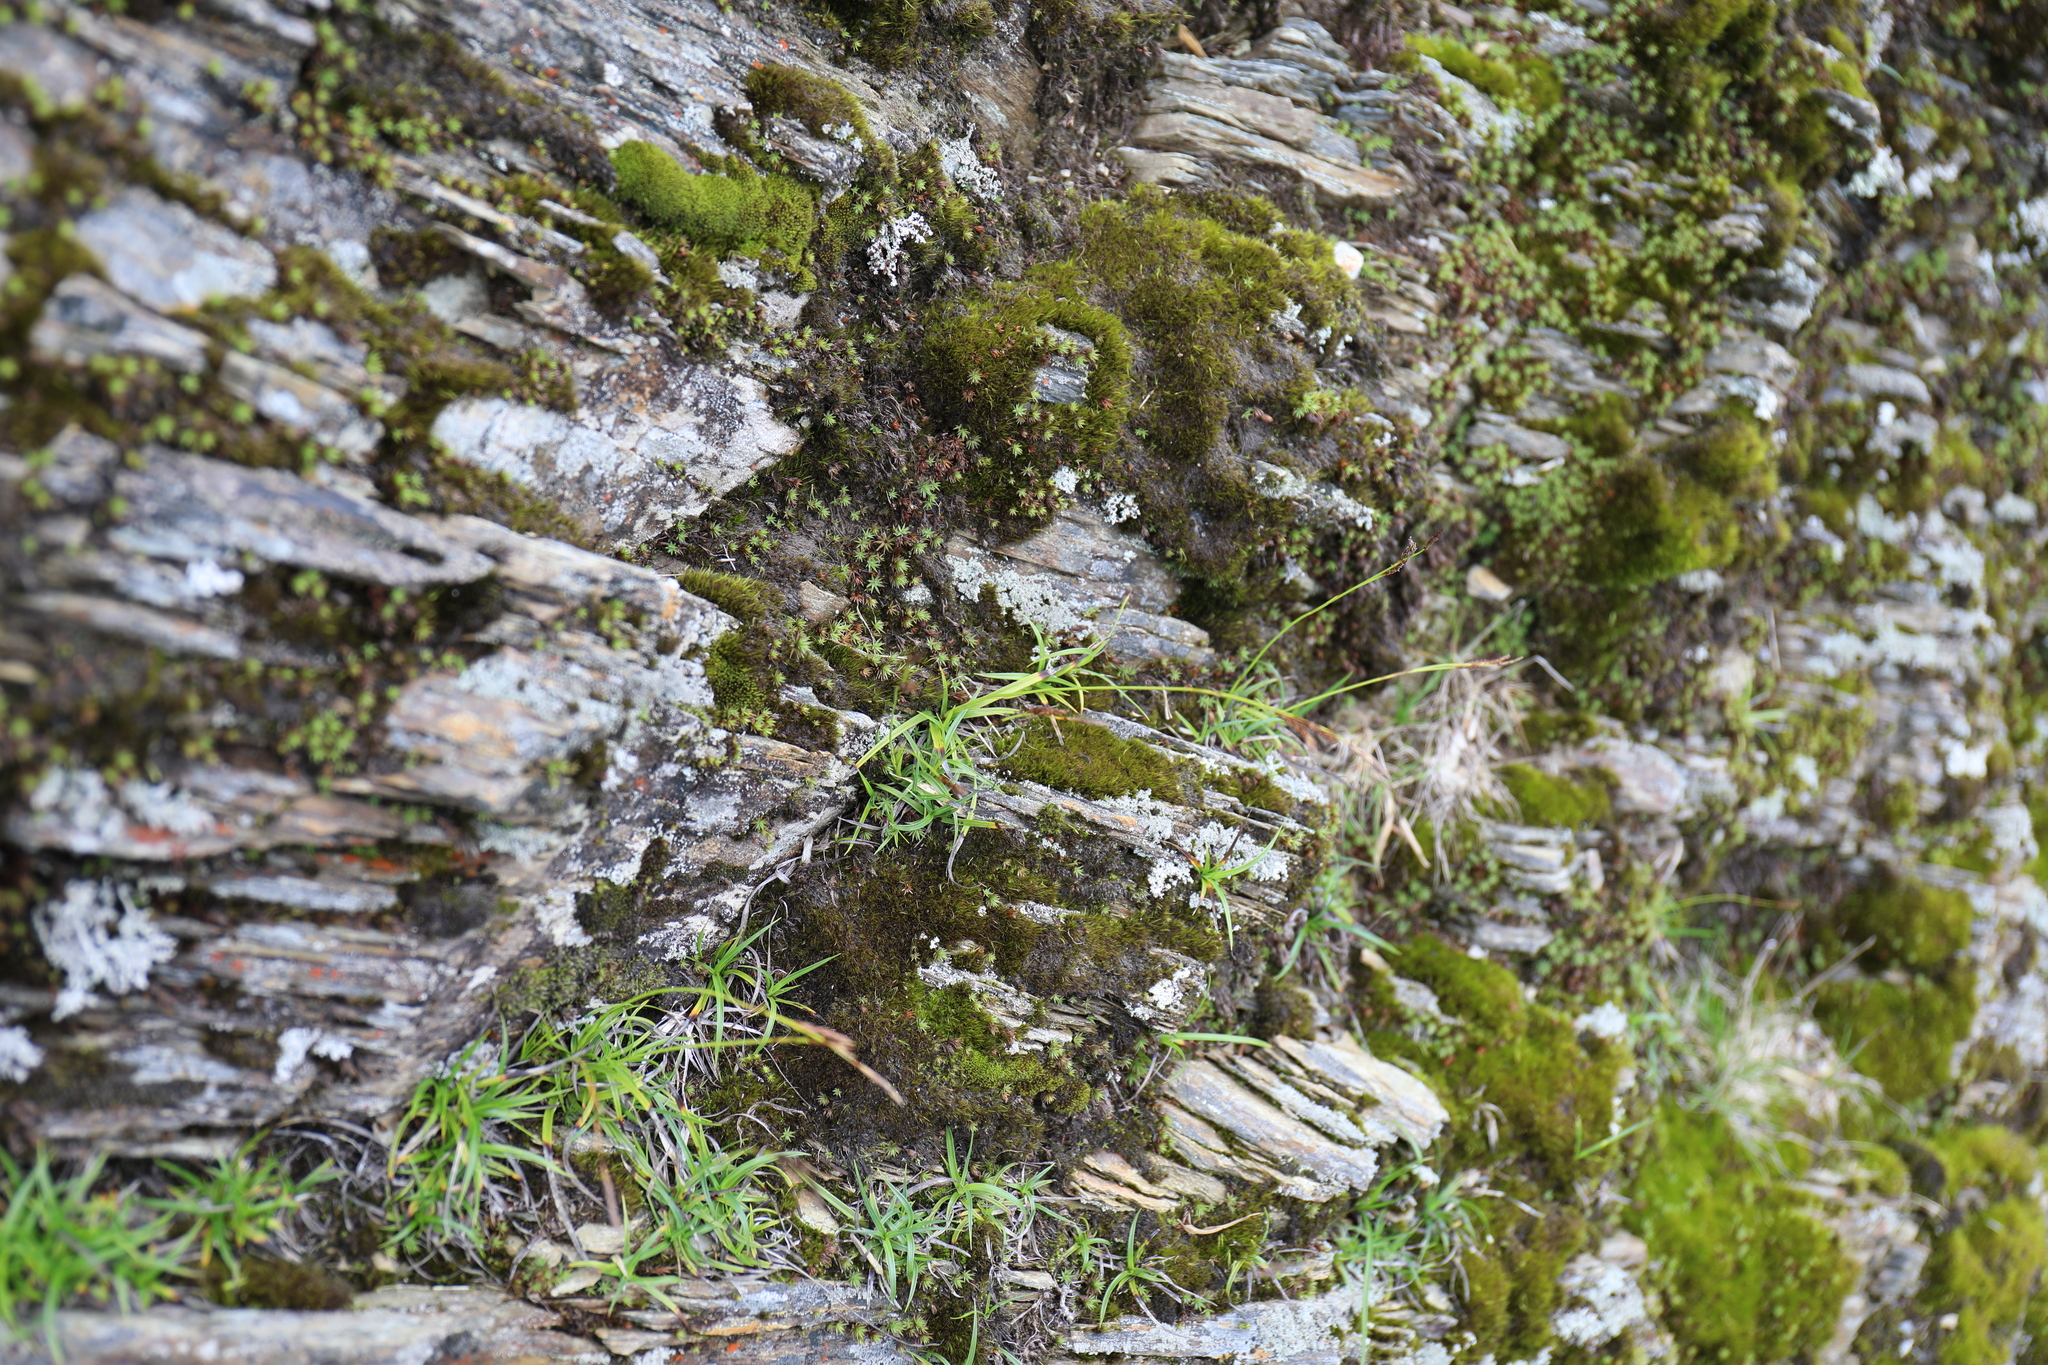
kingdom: Plantae
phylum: Tracheophyta
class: Liliopsida
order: Poales
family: Cyperaceae
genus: Carex
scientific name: Carex chrysolepis
